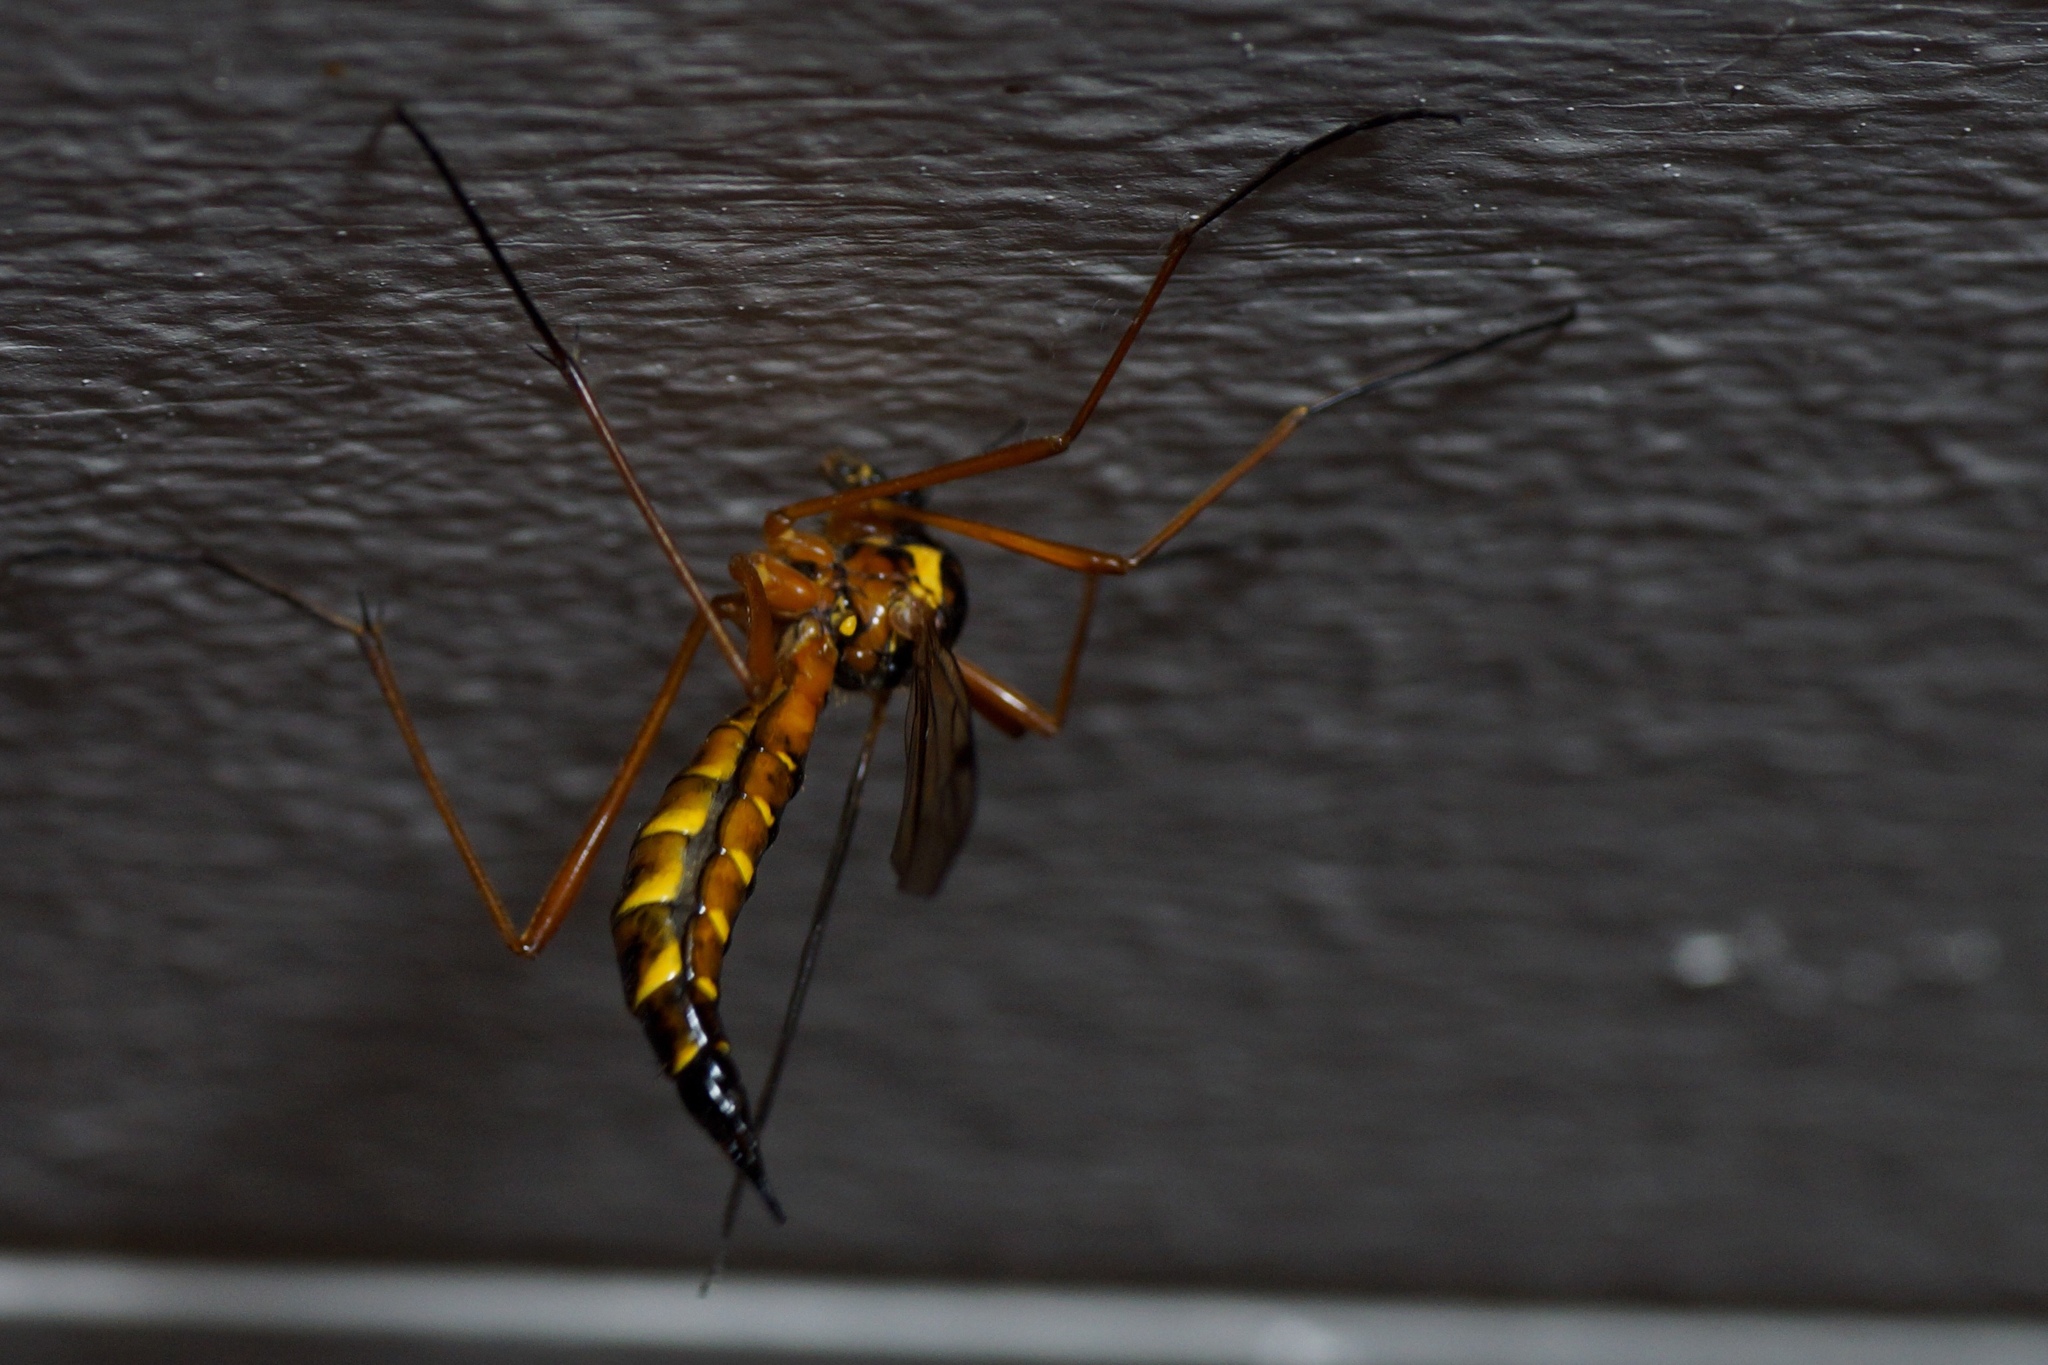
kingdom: Animalia
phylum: Arthropoda
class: Insecta
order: Diptera
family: Tipulidae
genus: Ctenophora
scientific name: Ctenophora pectinicornis
